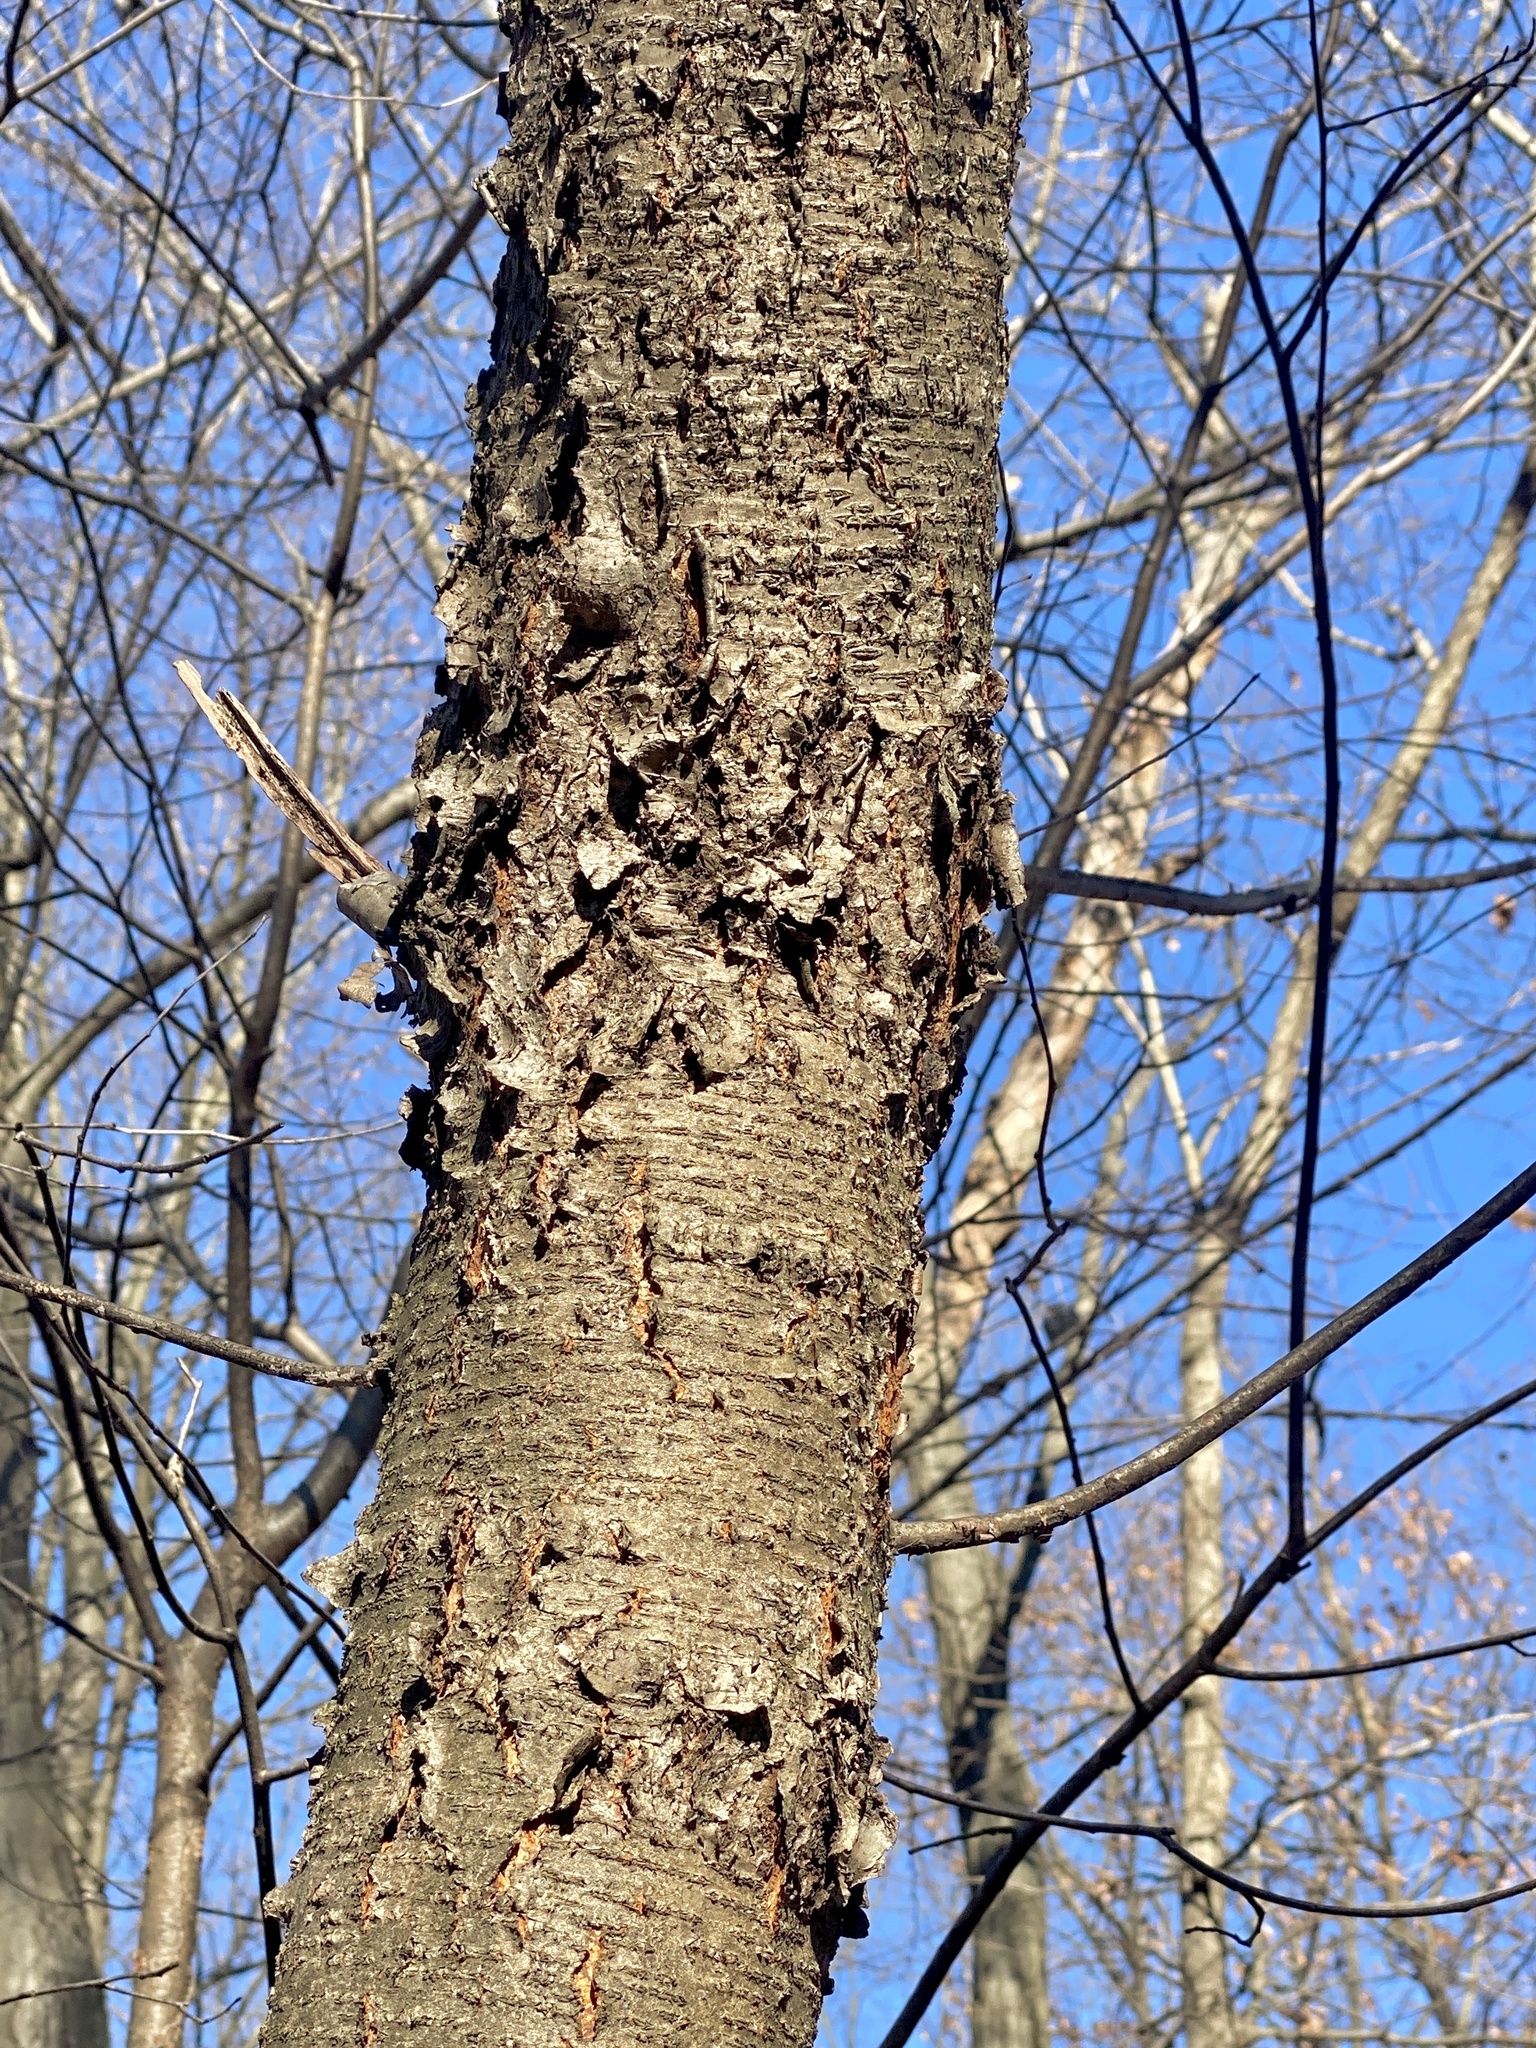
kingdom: Plantae
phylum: Tracheophyta
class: Magnoliopsida
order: Rosales
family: Rosaceae
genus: Prunus
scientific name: Prunus serotina
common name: Black cherry
